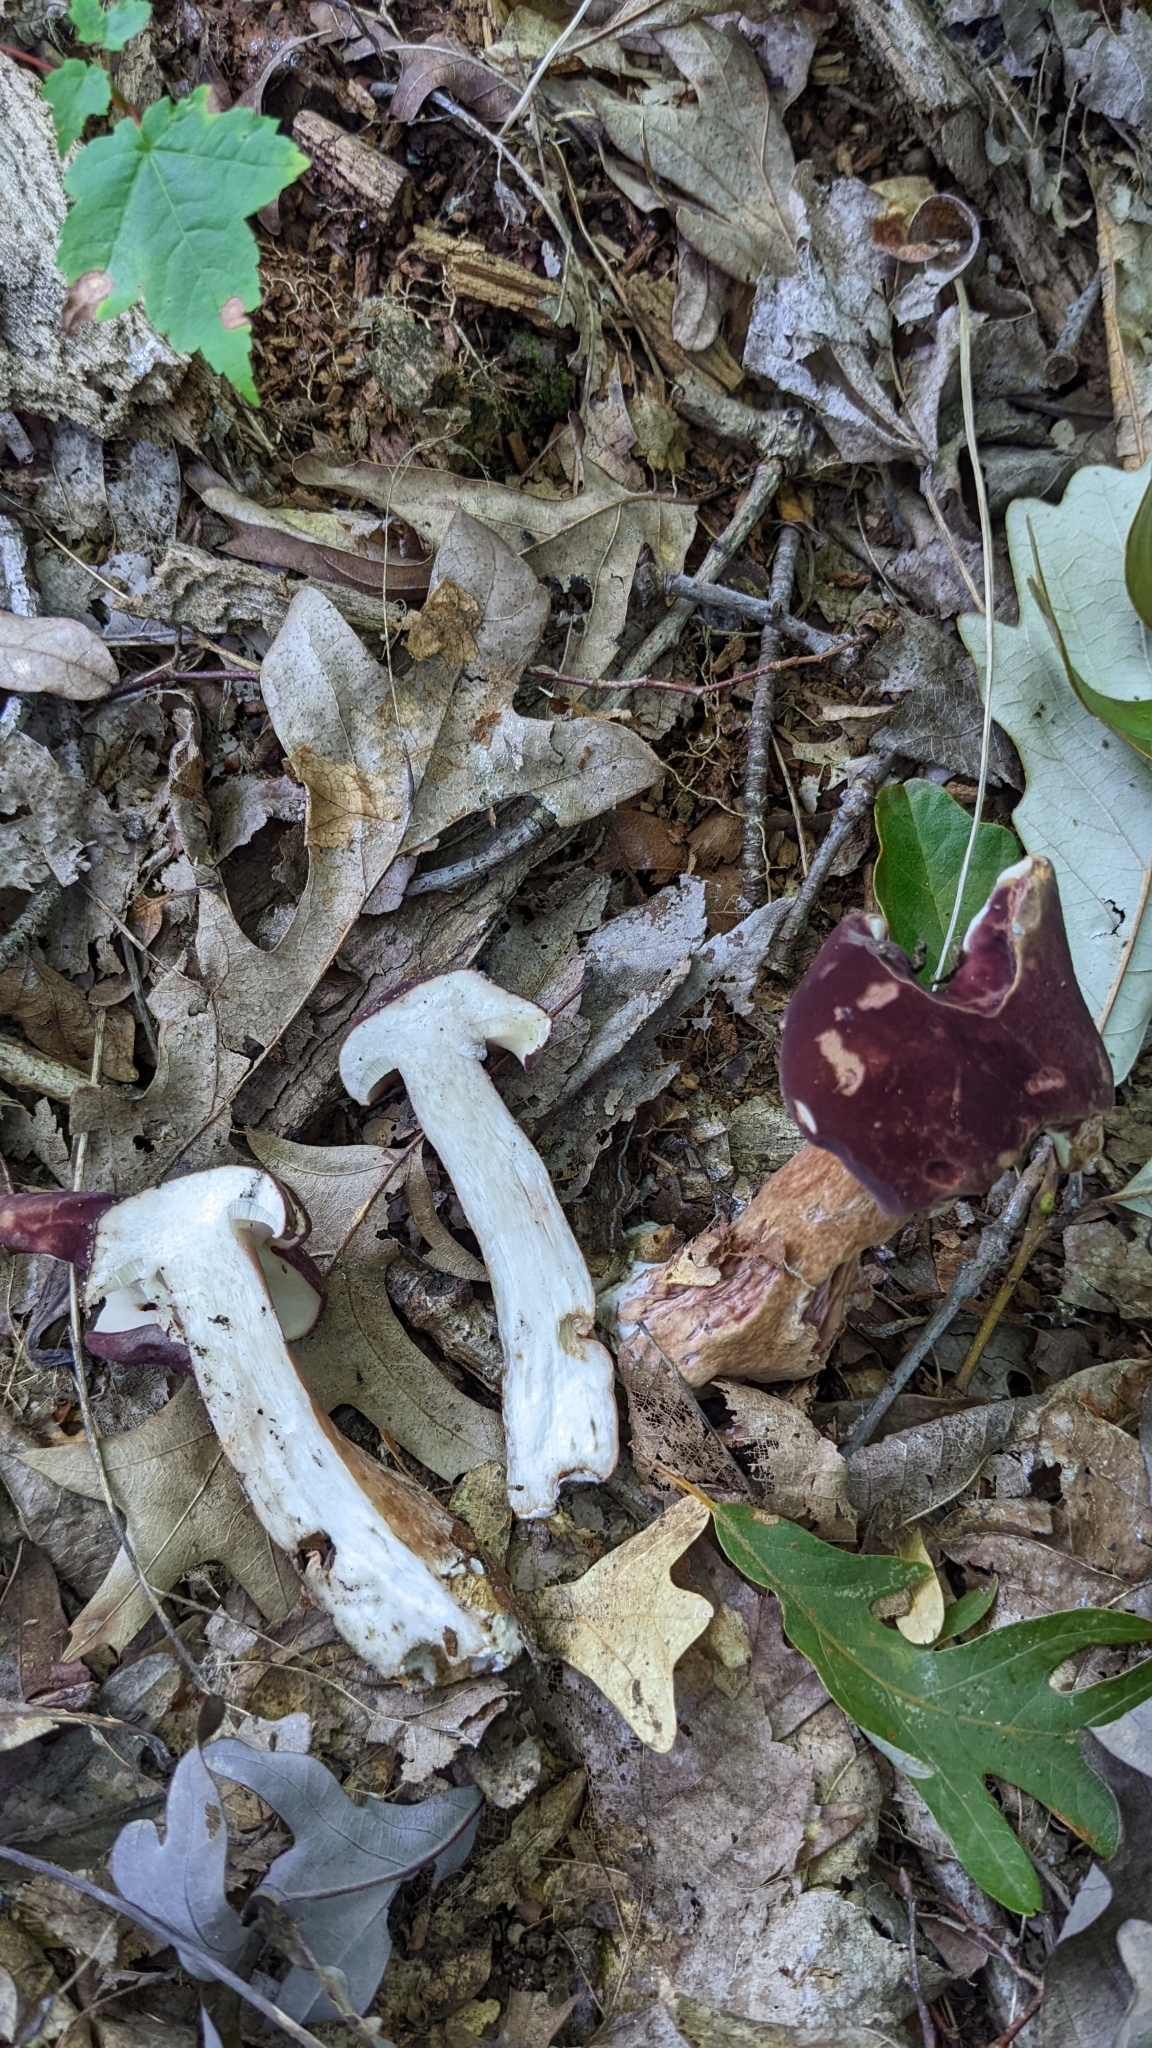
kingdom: Fungi
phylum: Basidiomycota
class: Agaricomycetes
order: Boletales
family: Boletaceae
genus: Tylopilus
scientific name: Tylopilus rubrobrunneus
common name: Reddish brown bitter bolete
